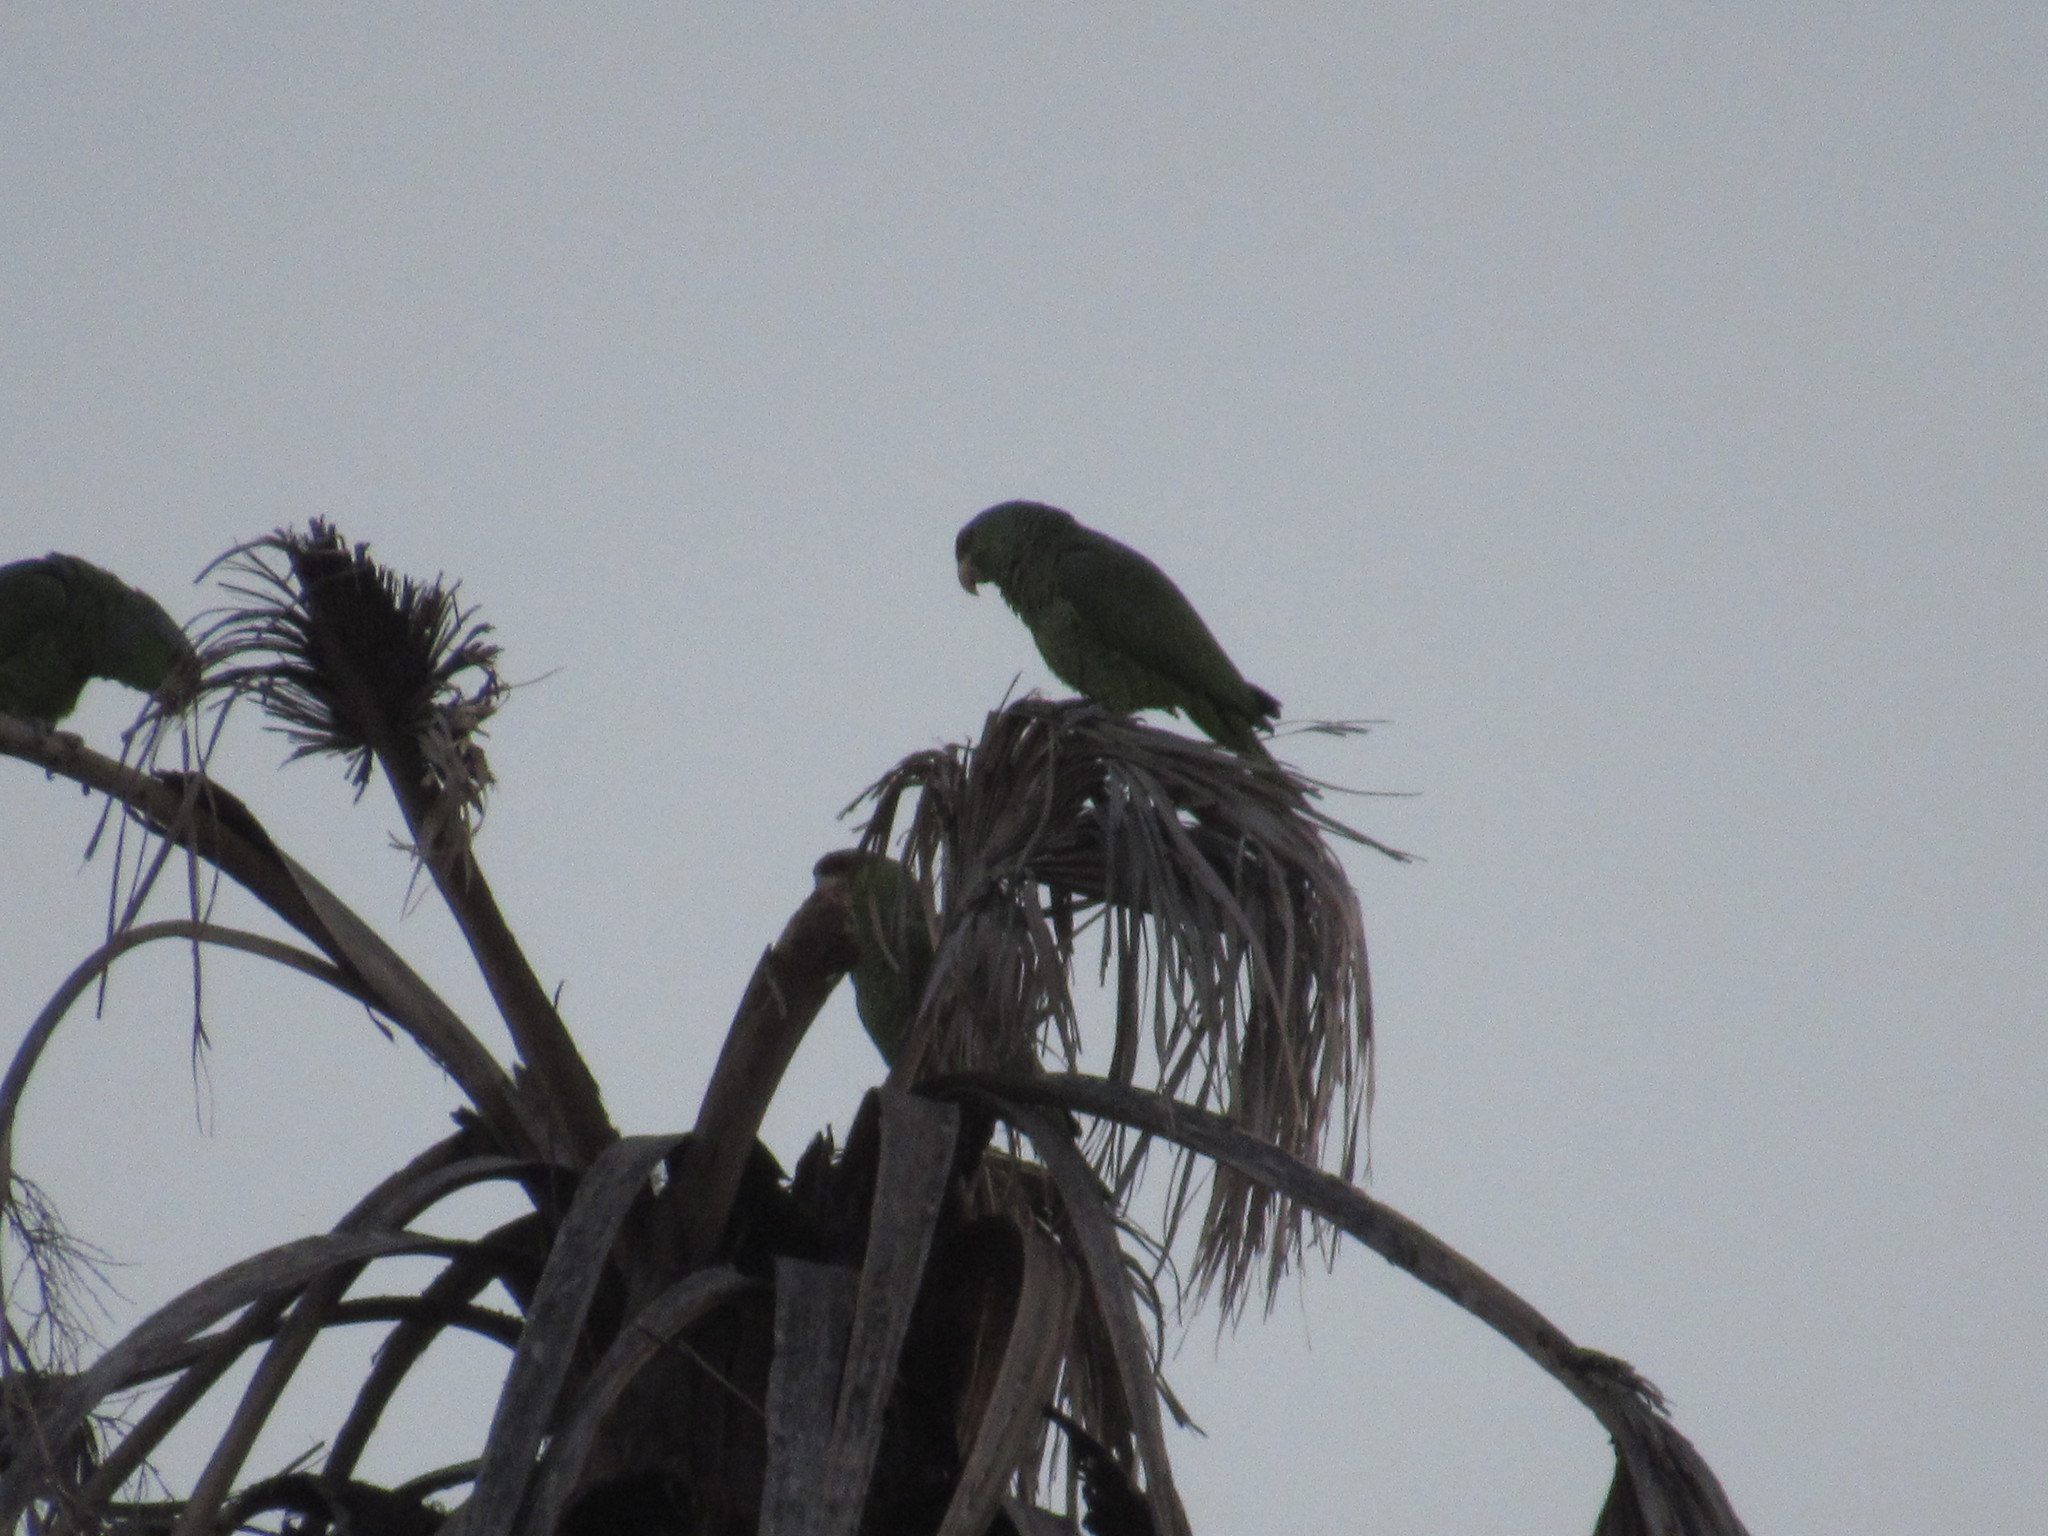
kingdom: Animalia
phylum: Chordata
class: Aves
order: Psittaciformes
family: Psittacidae
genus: Amazona
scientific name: Amazona finschi
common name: Lilac-crowned amazon
